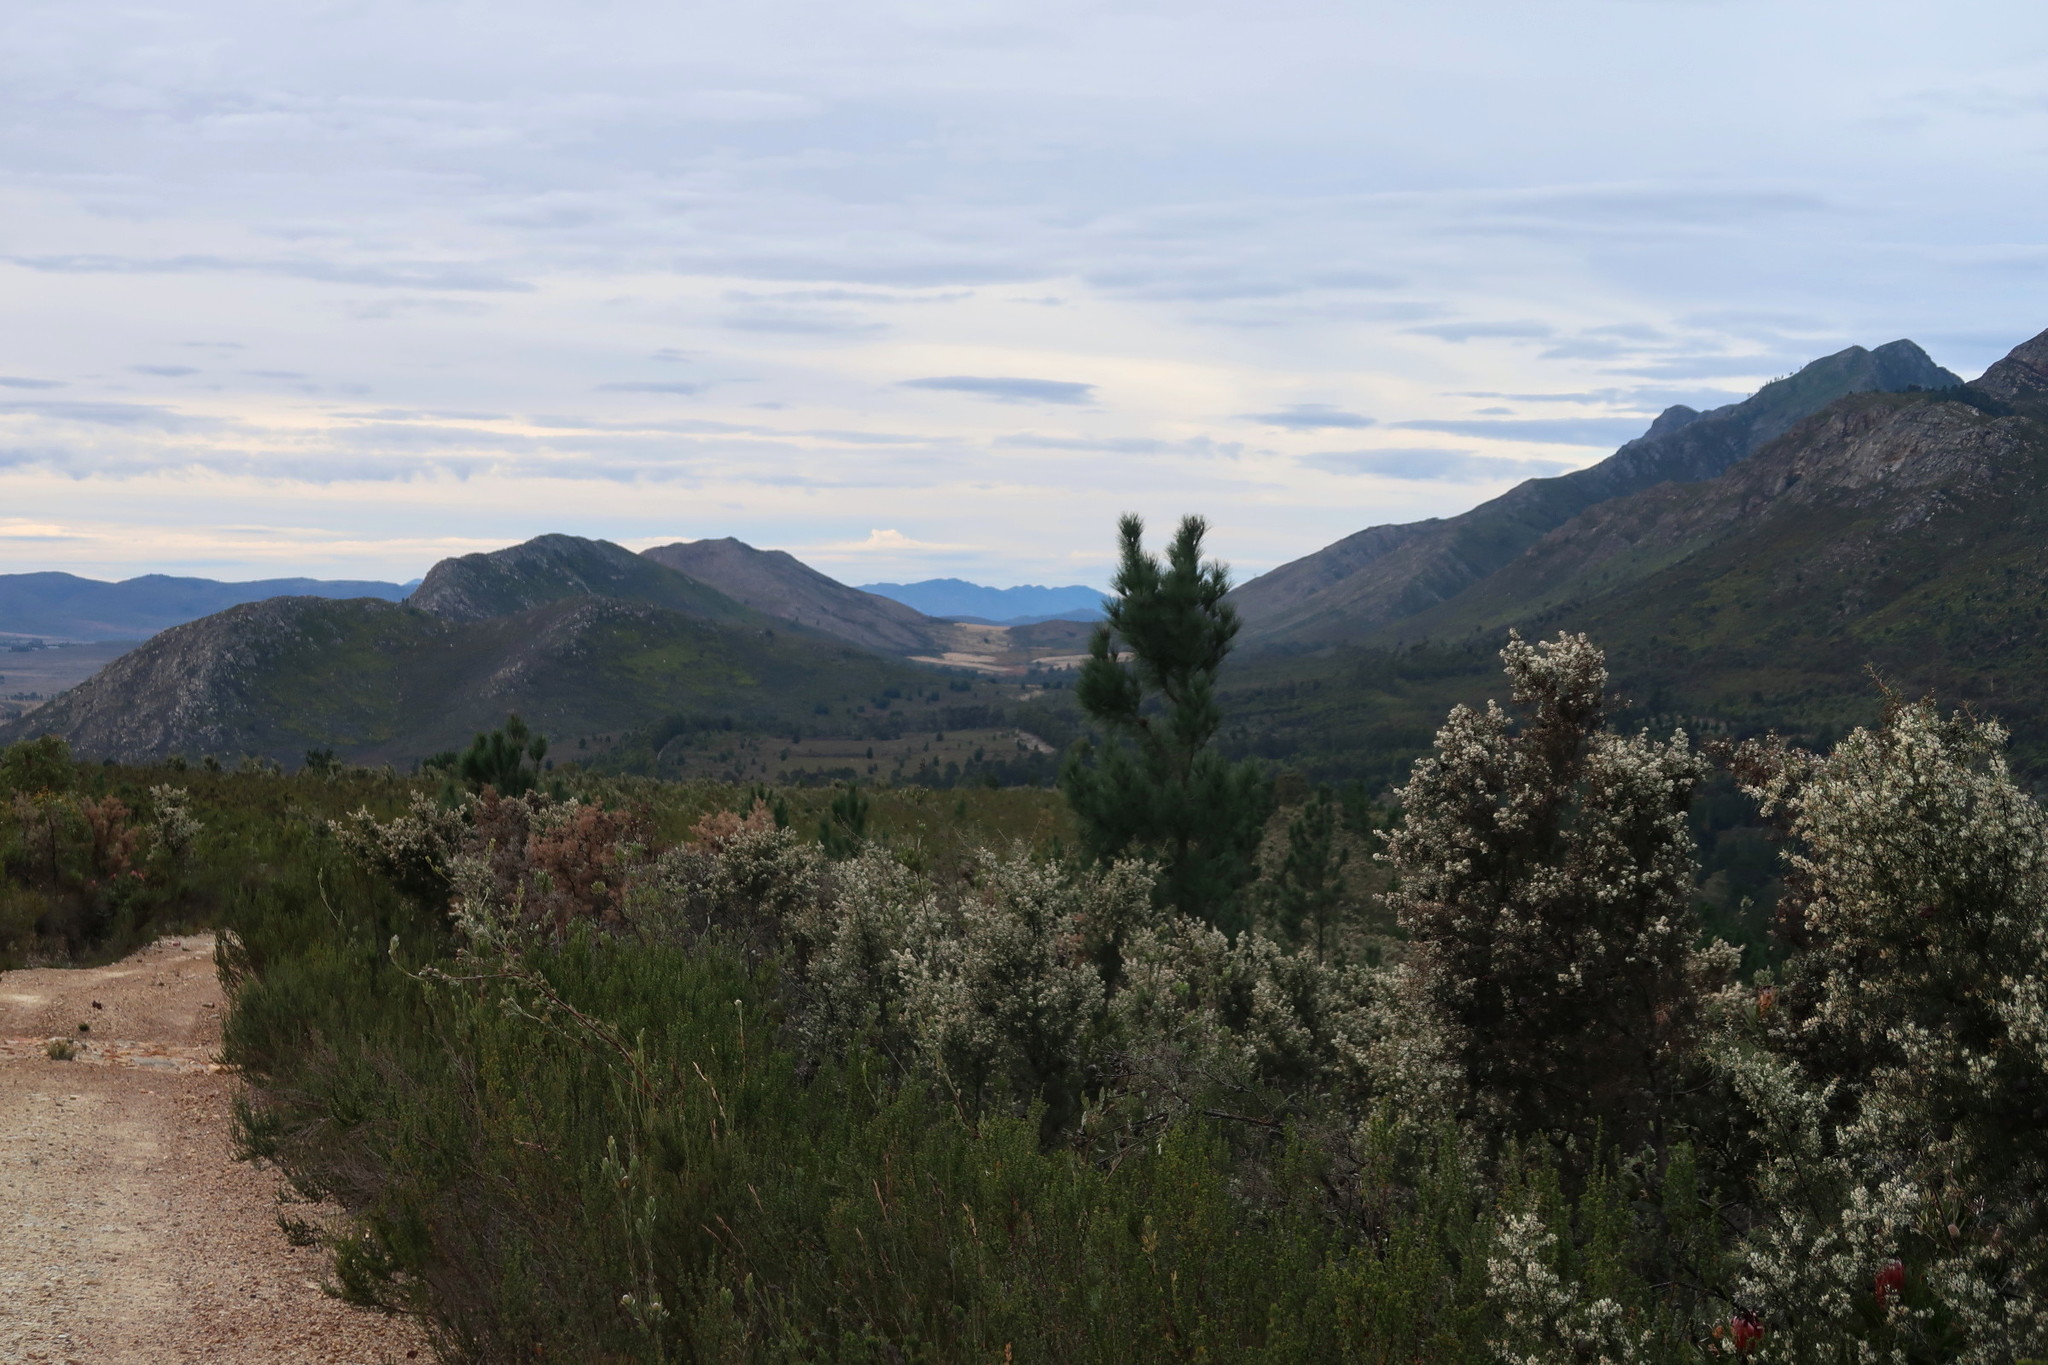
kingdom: Plantae
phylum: Tracheophyta
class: Magnoliopsida
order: Proteales
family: Proteaceae
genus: Hakea
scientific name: Hakea sericea
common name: Needle bush
